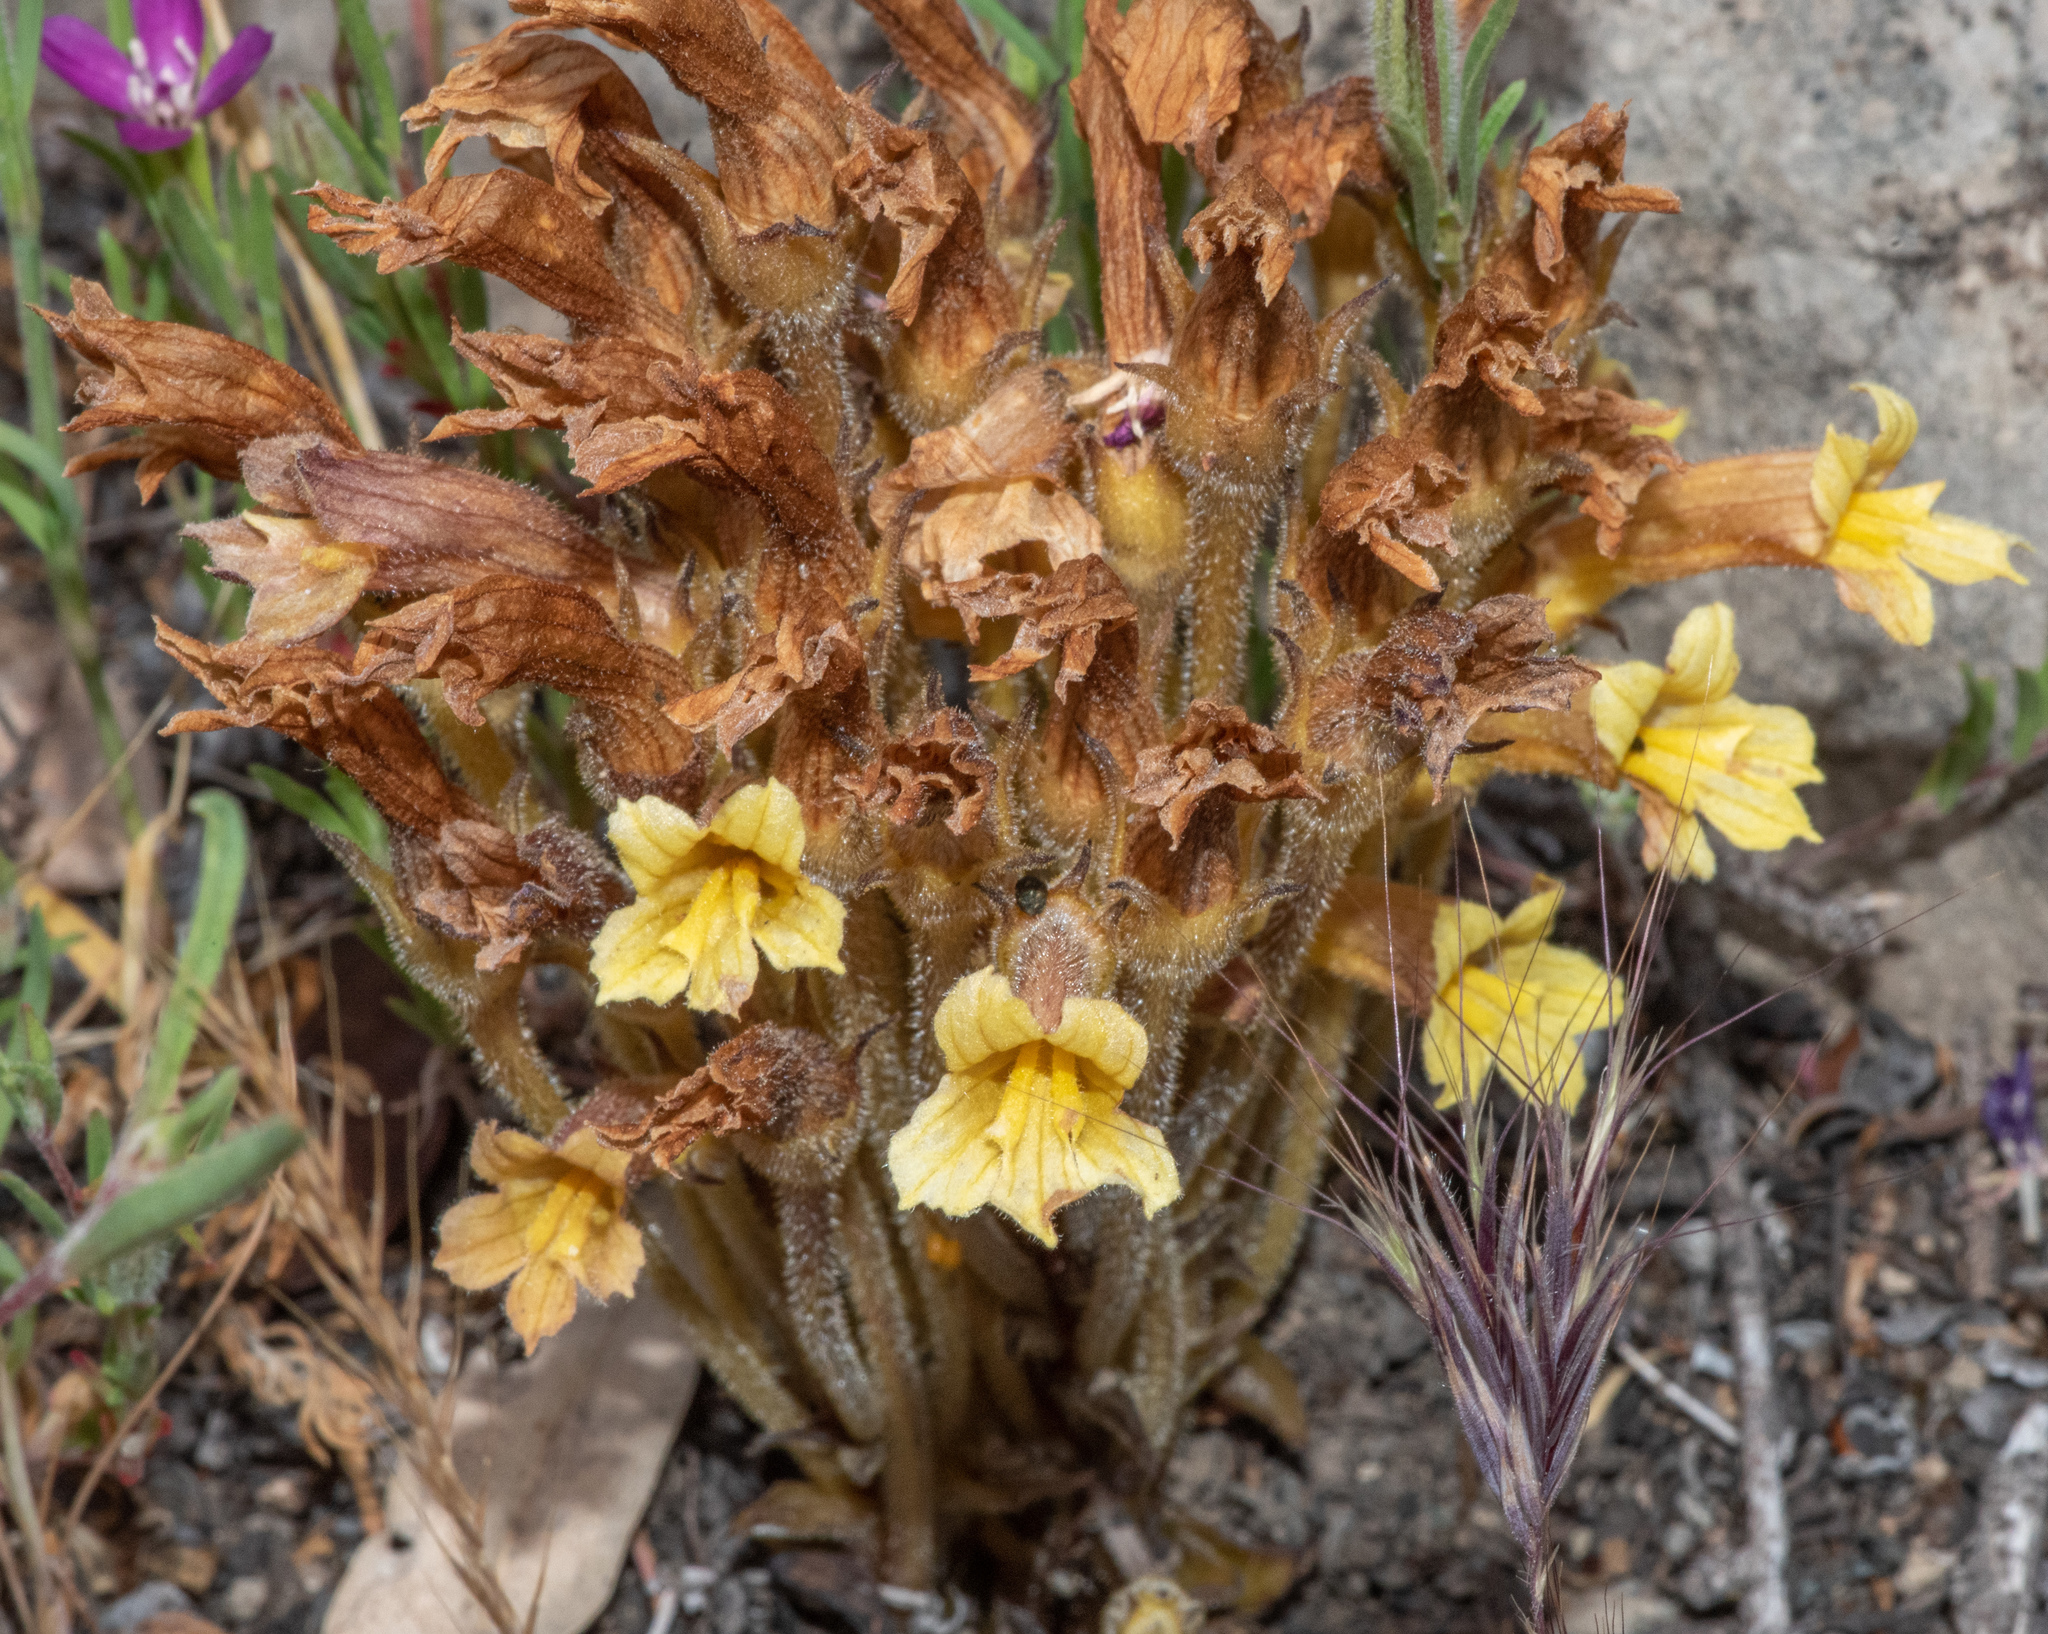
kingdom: Plantae
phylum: Tracheophyta
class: Magnoliopsida
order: Lamiales
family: Orobanchaceae
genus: Aphyllon
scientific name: Aphyllon franciscanum
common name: San francisco broomrape
